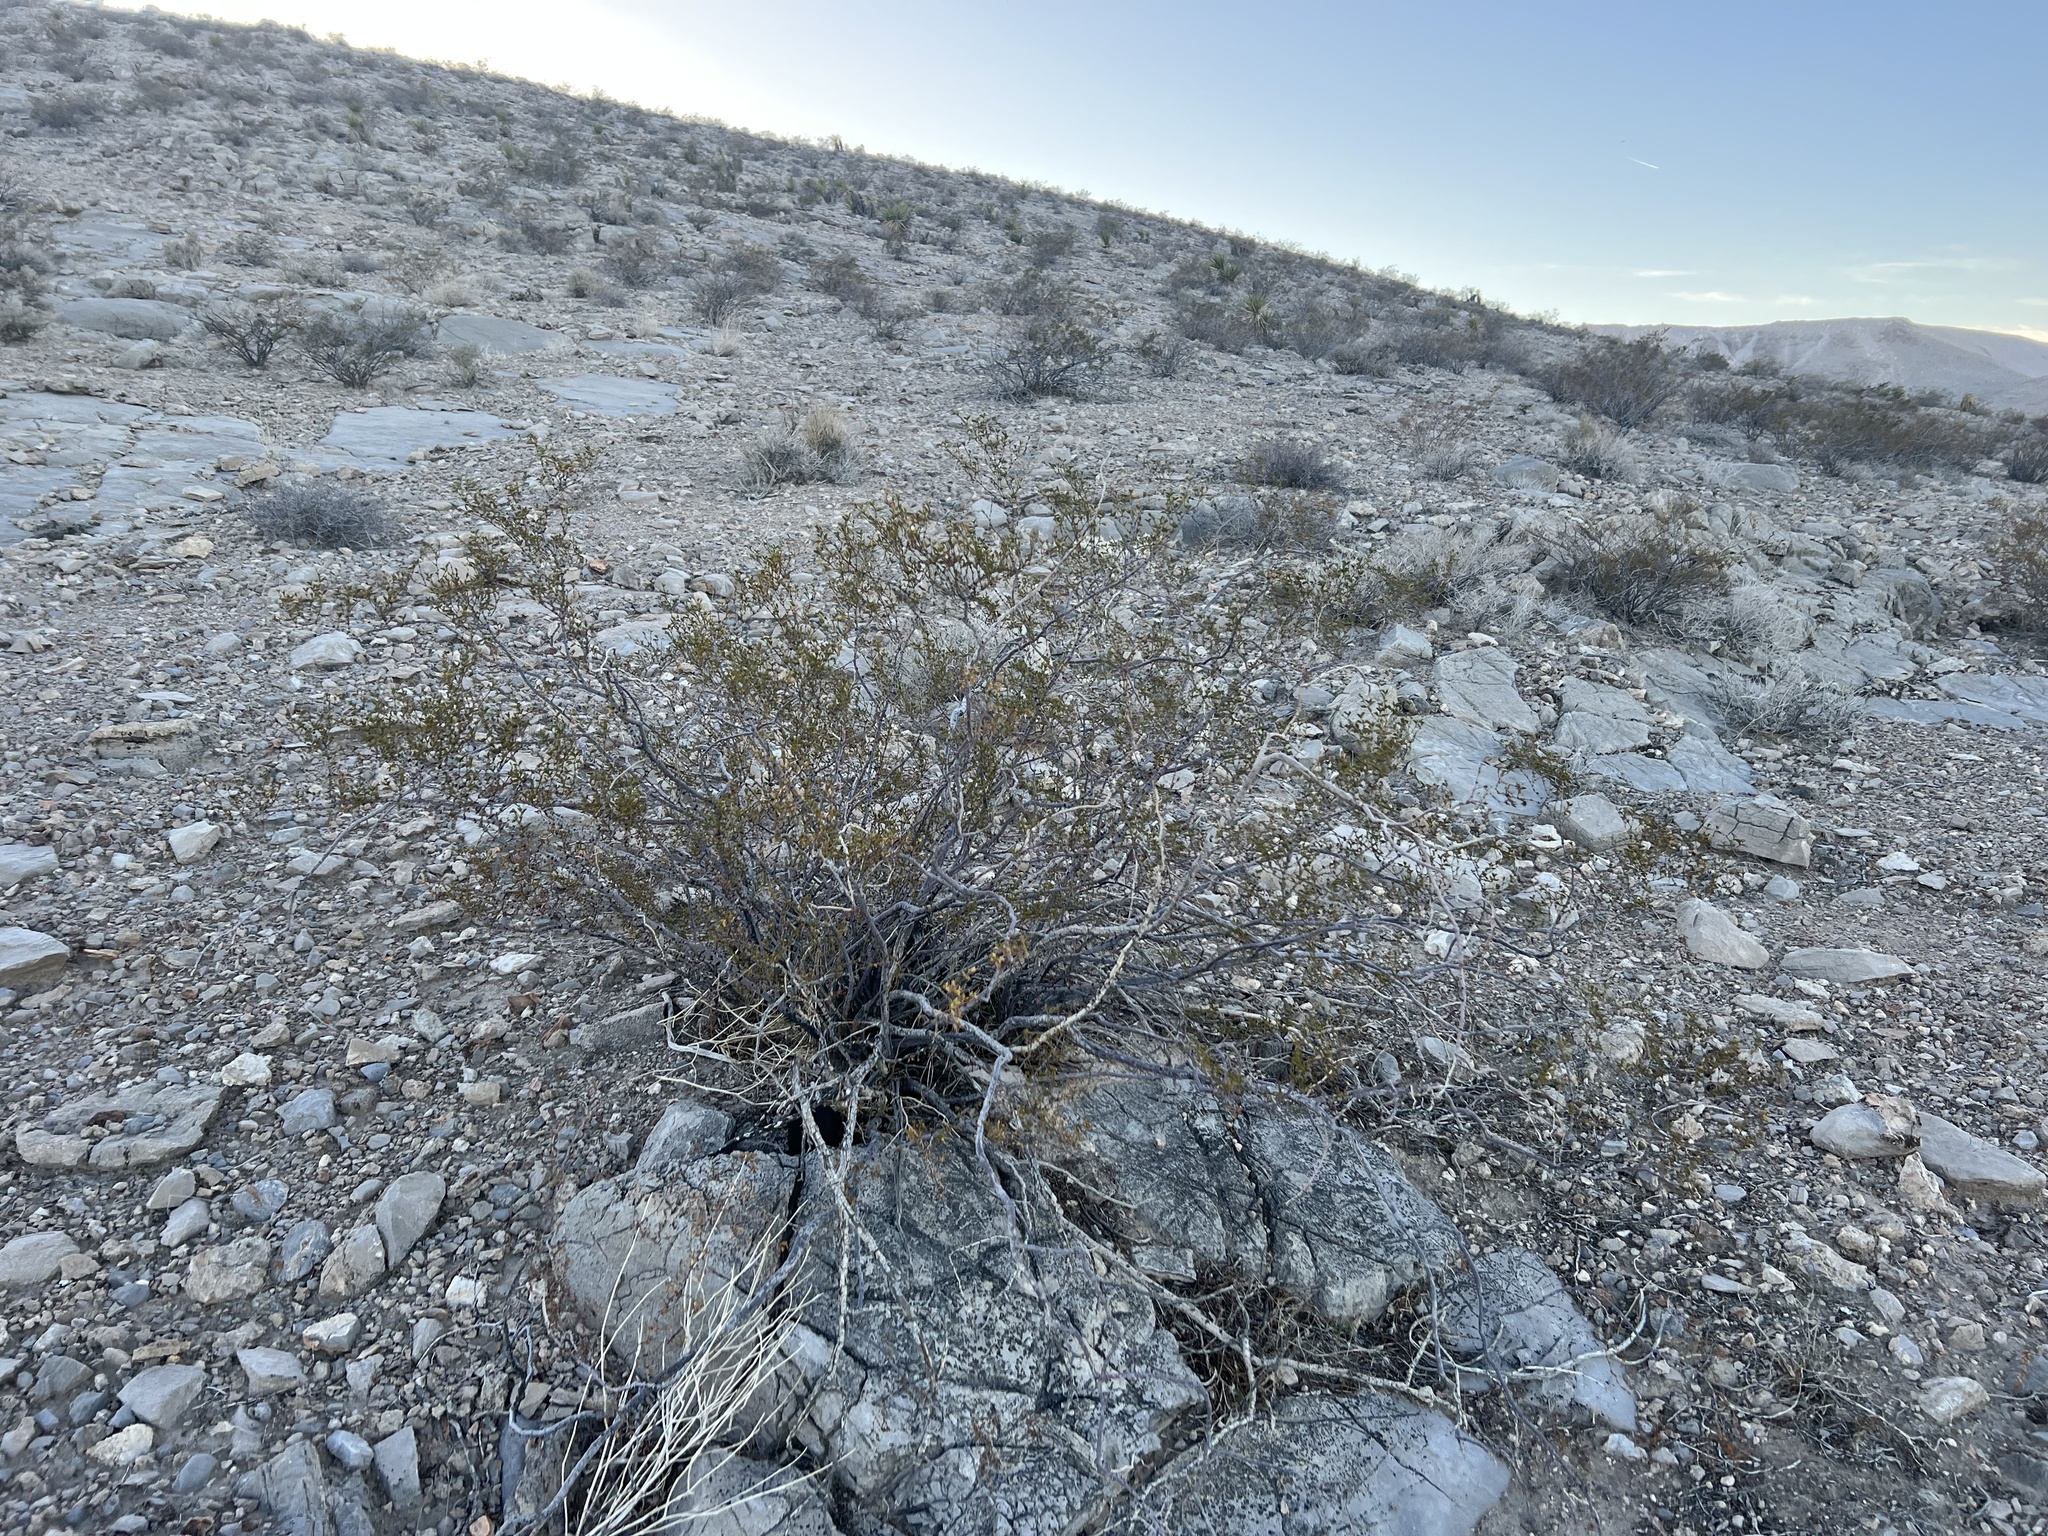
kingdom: Plantae
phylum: Tracheophyta
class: Magnoliopsida
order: Zygophyllales
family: Zygophyllaceae
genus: Larrea
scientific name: Larrea tridentata
